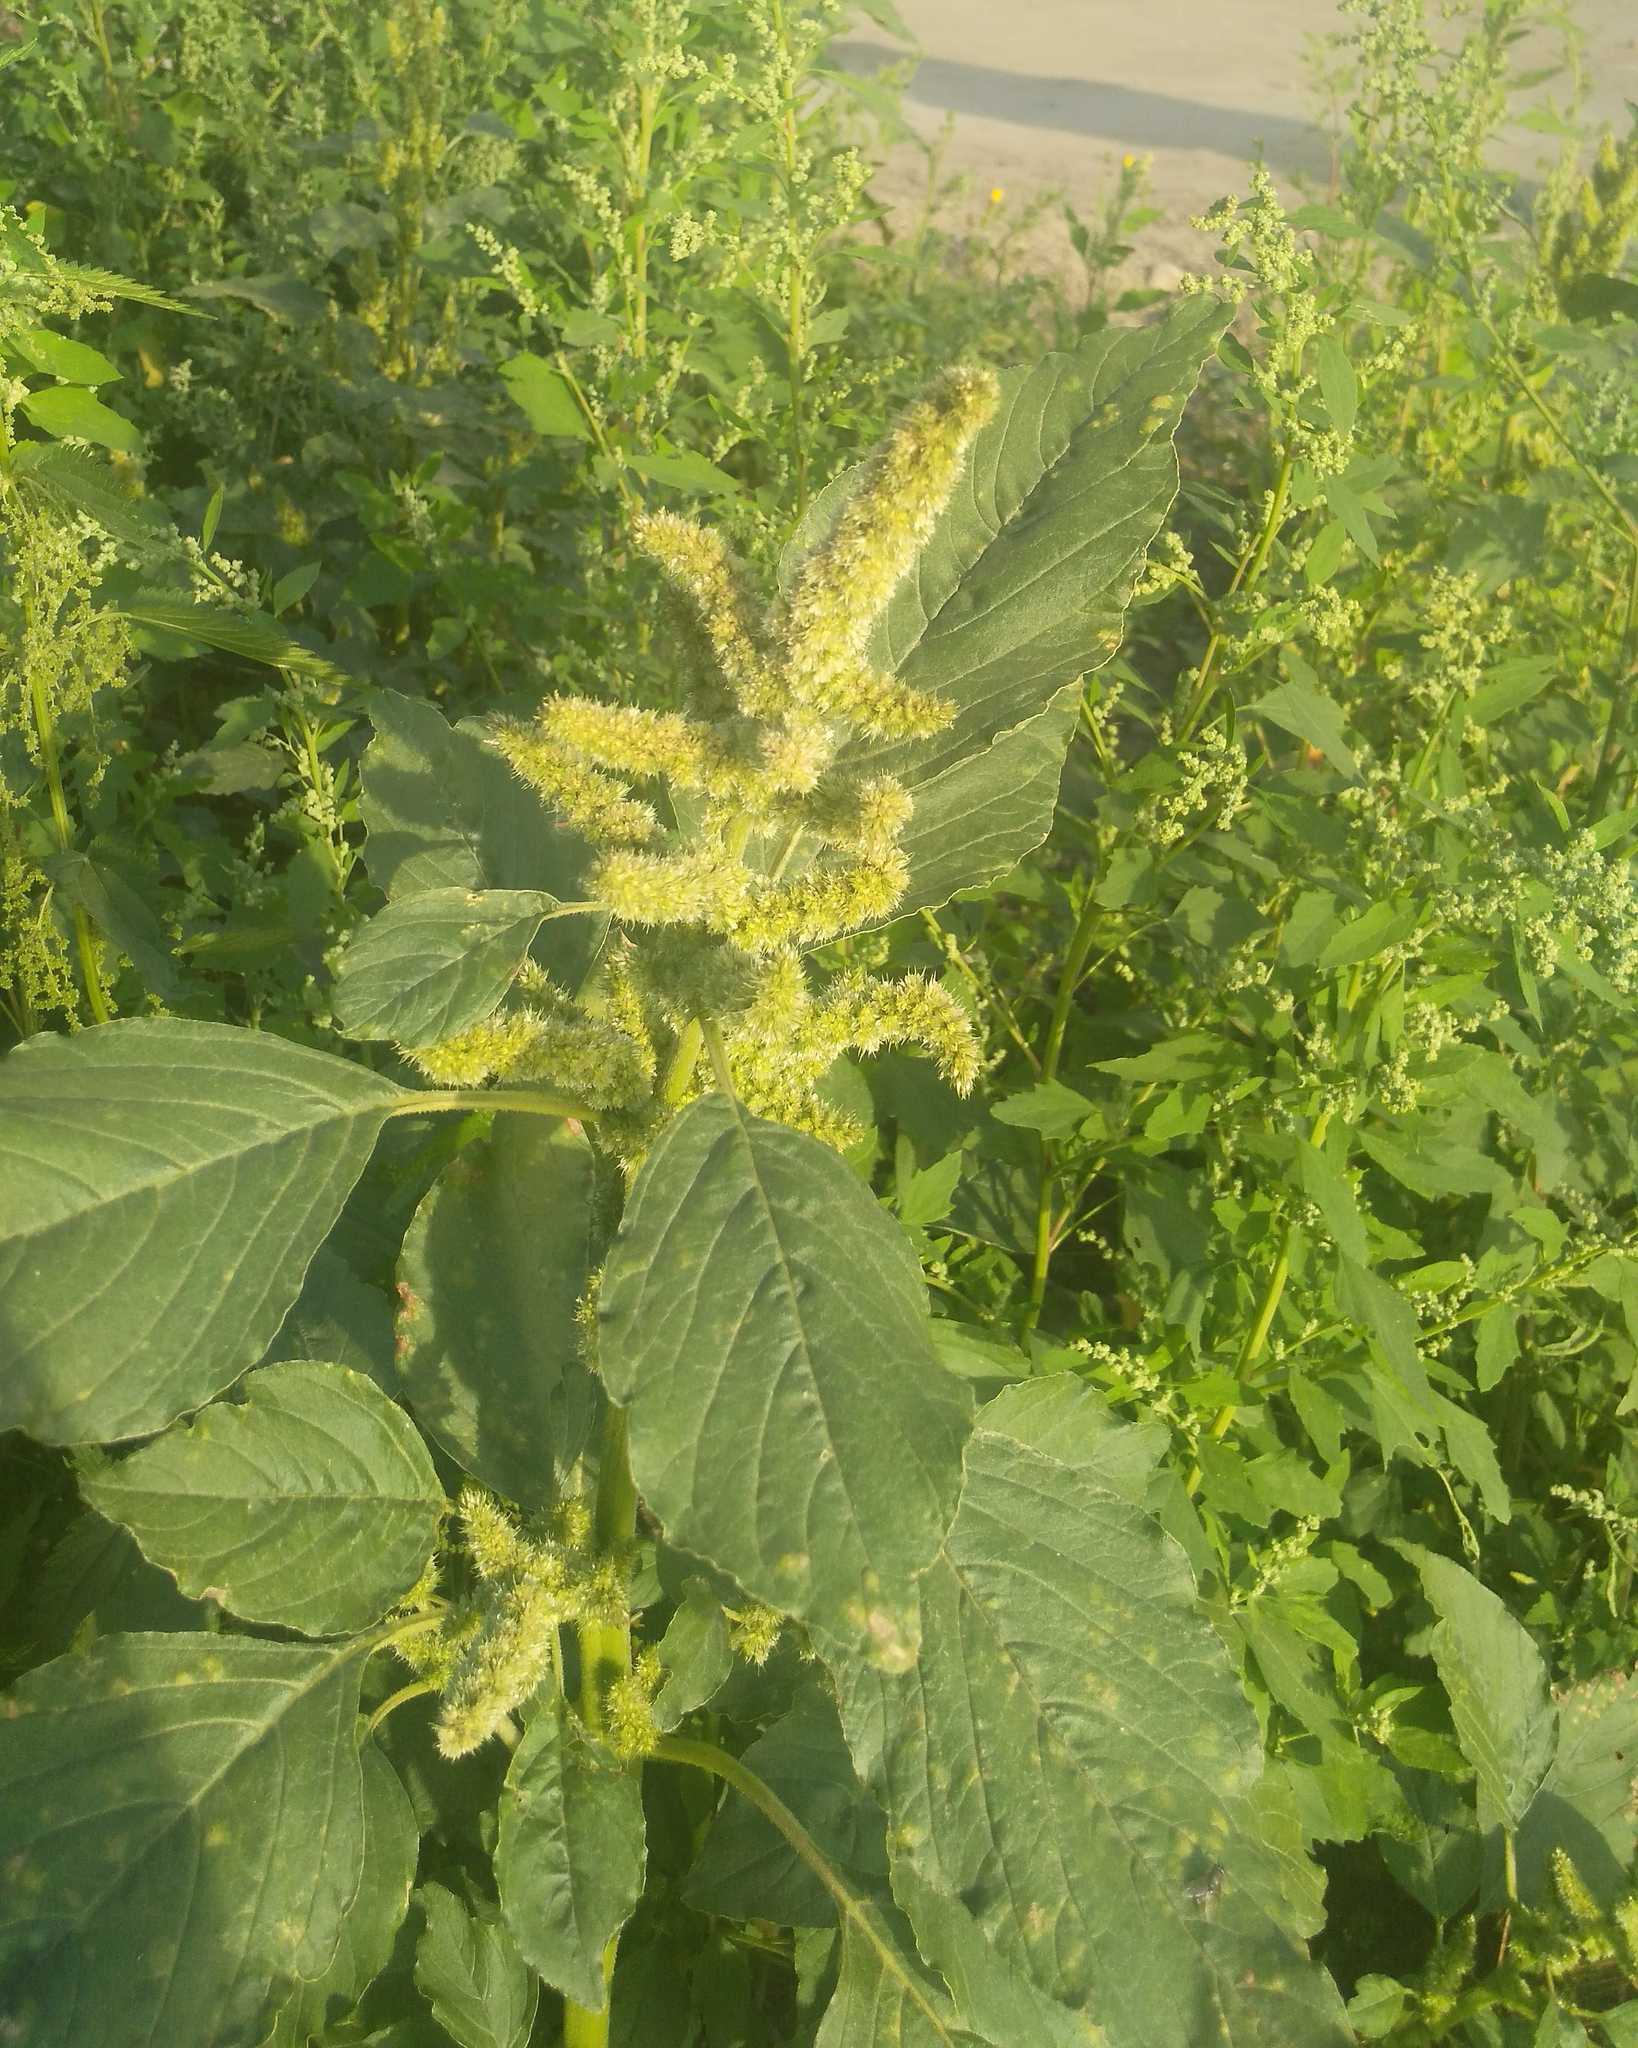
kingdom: Plantae
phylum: Tracheophyta
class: Magnoliopsida
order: Caryophyllales
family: Amaranthaceae
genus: Amaranthus
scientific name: Amaranthus retroflexus
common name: Redroot amaranth
